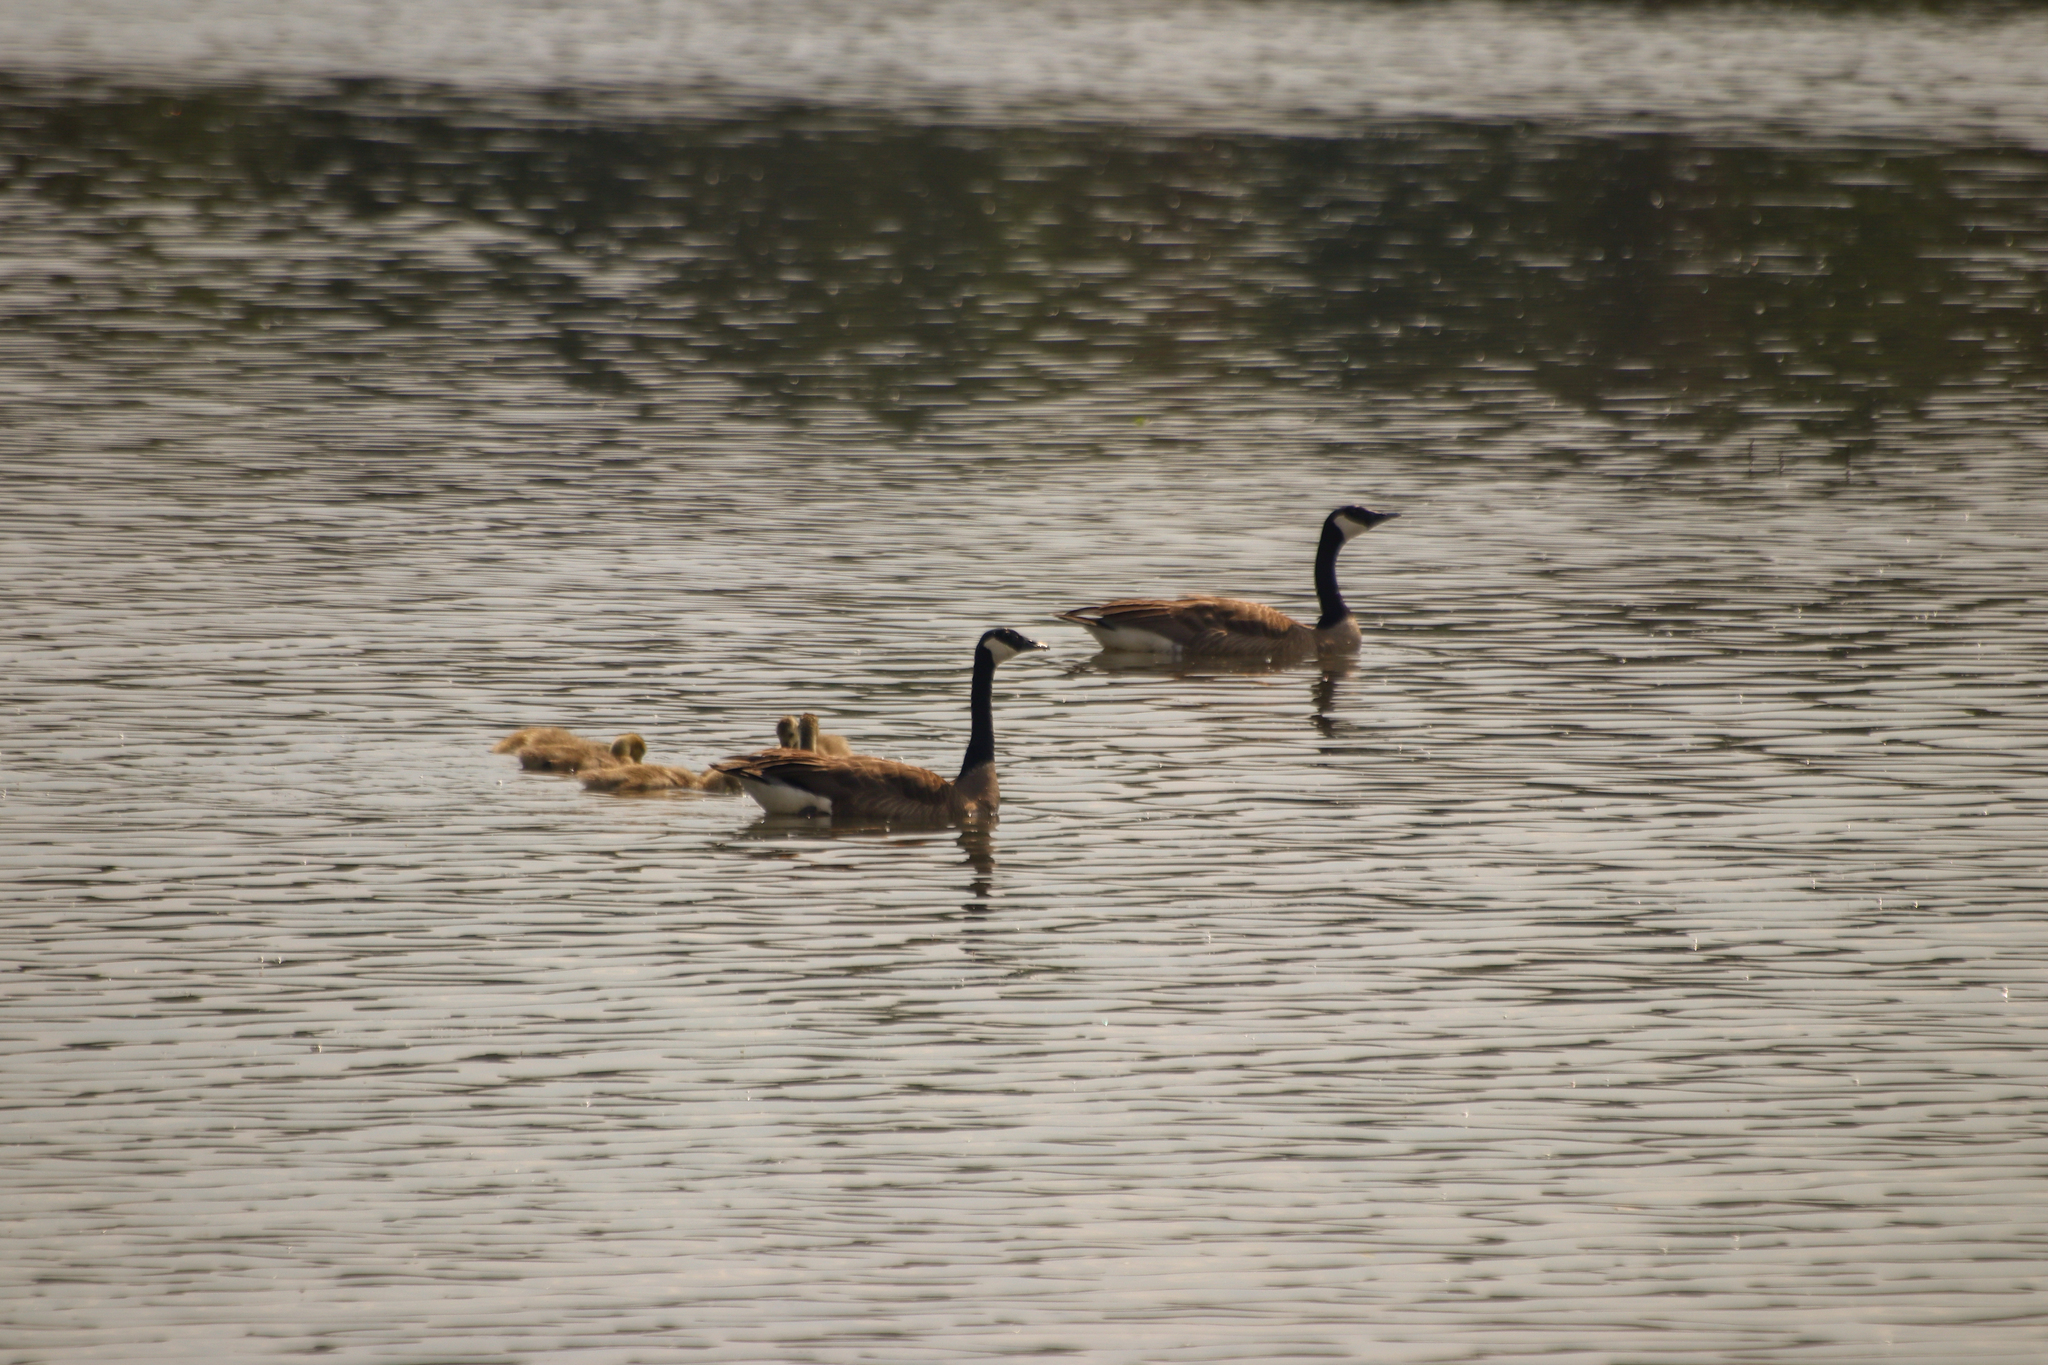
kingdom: Animalia
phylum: Chordata
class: Aves
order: Anseriformes
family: Anatidae
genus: Branta
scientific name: Branta canadensis
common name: Canada goose
